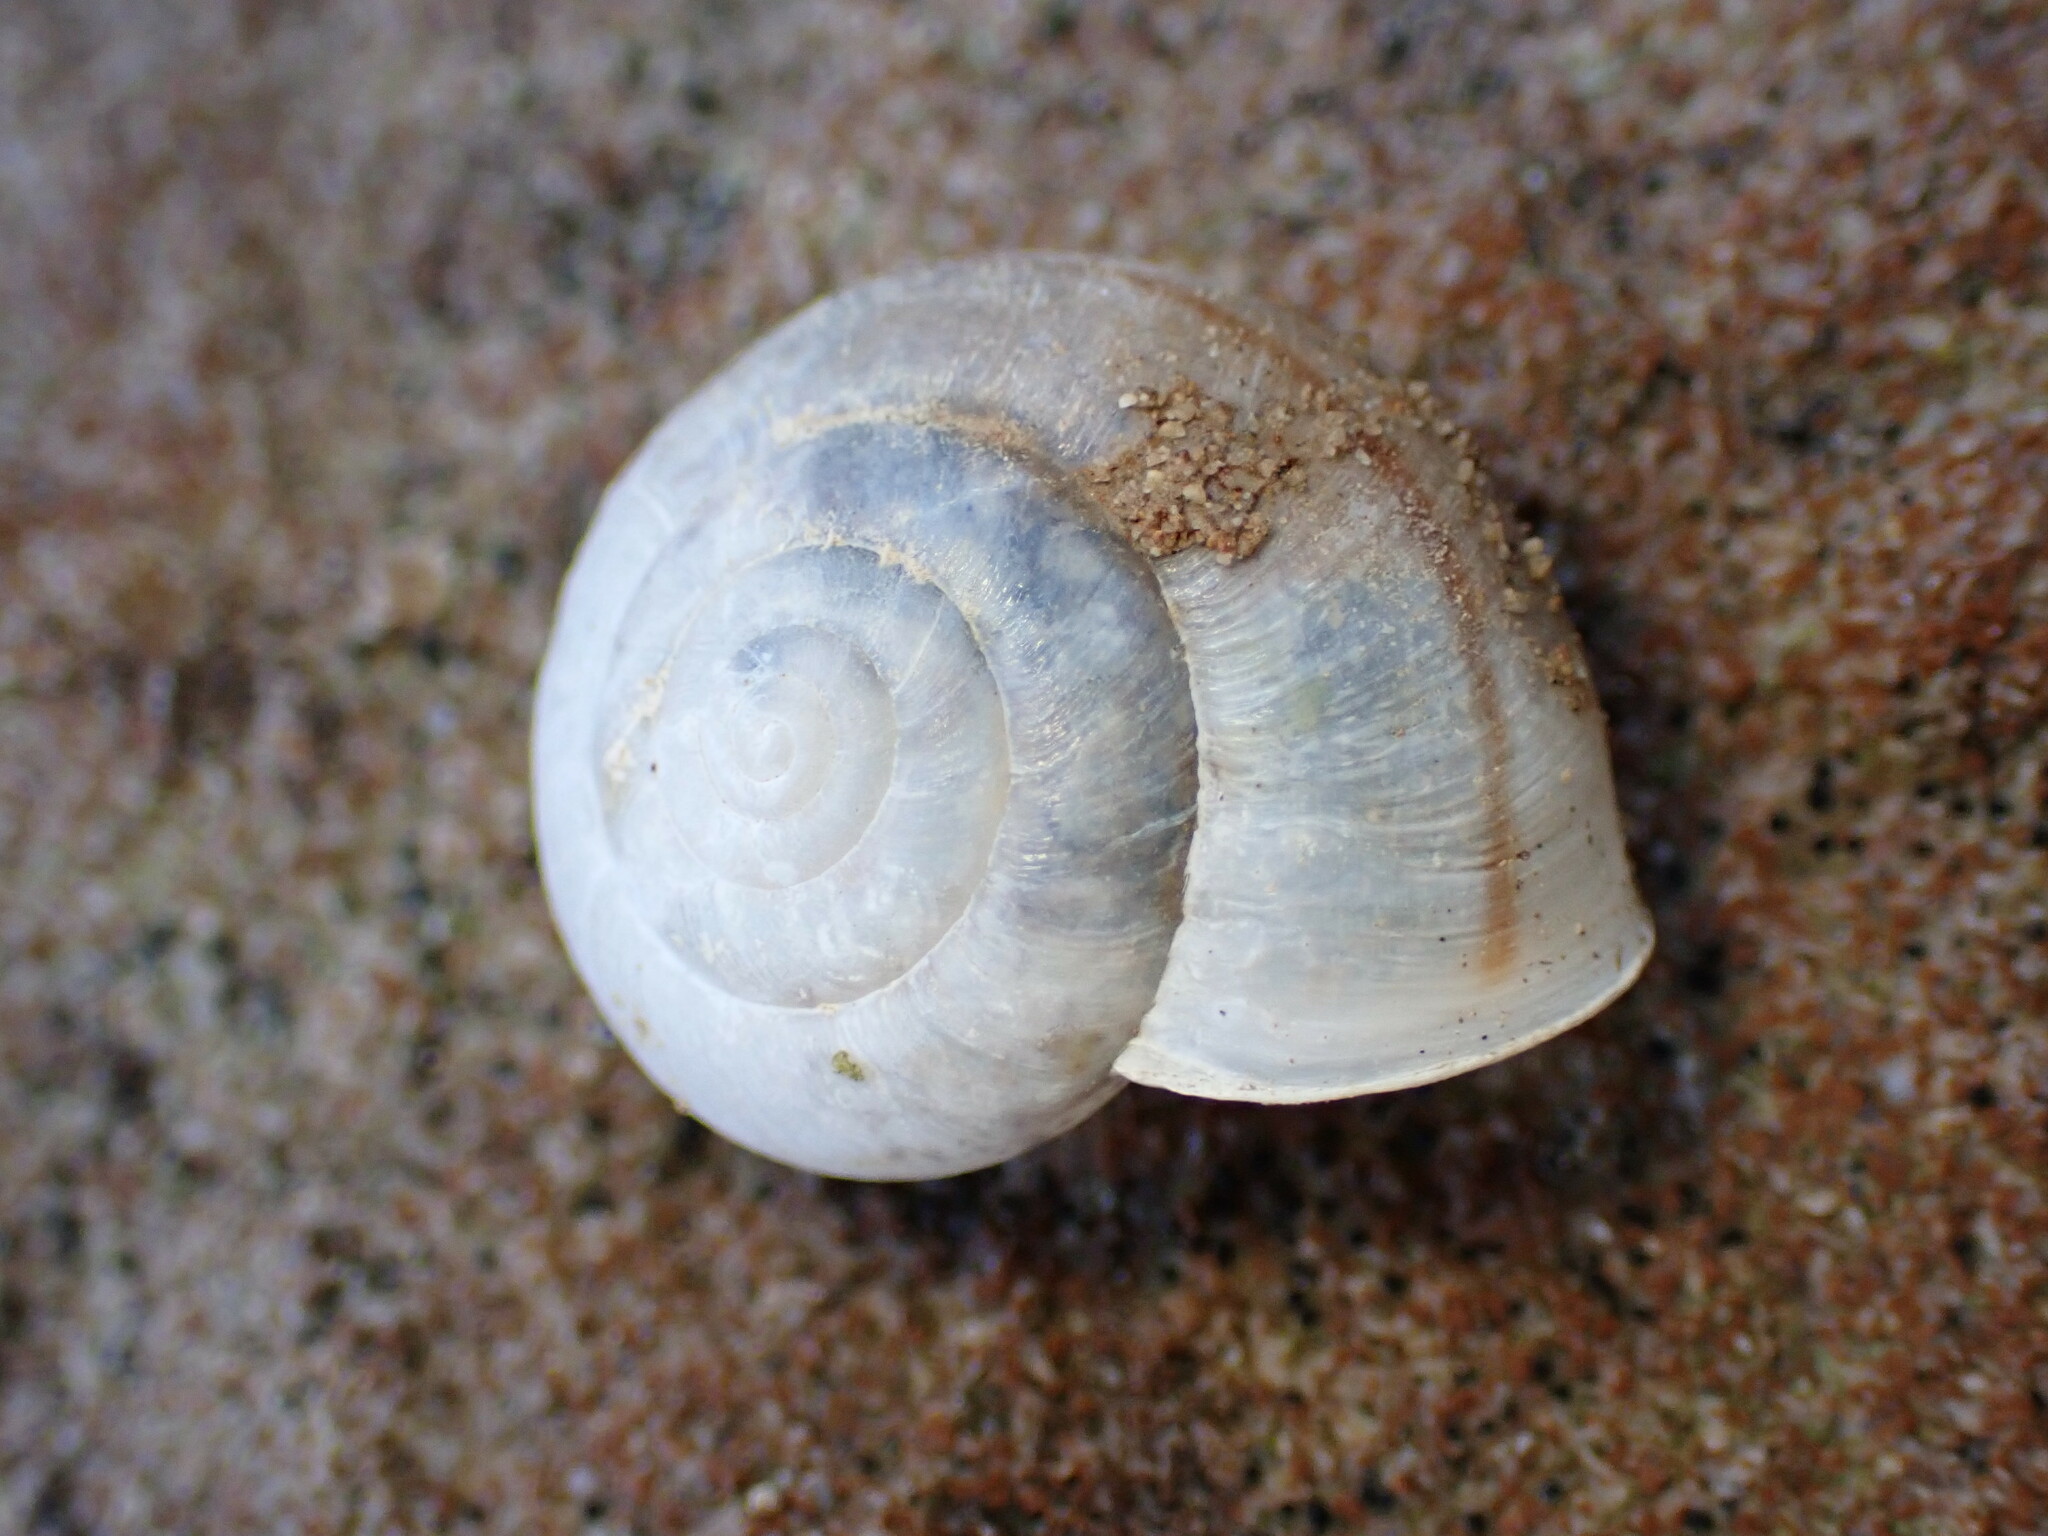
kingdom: Animalia
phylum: Mollusca
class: Gastropoda
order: Stylommatophora
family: Xanthonychidae
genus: Helminthoglypta
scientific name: Helminthoglypta reediana
